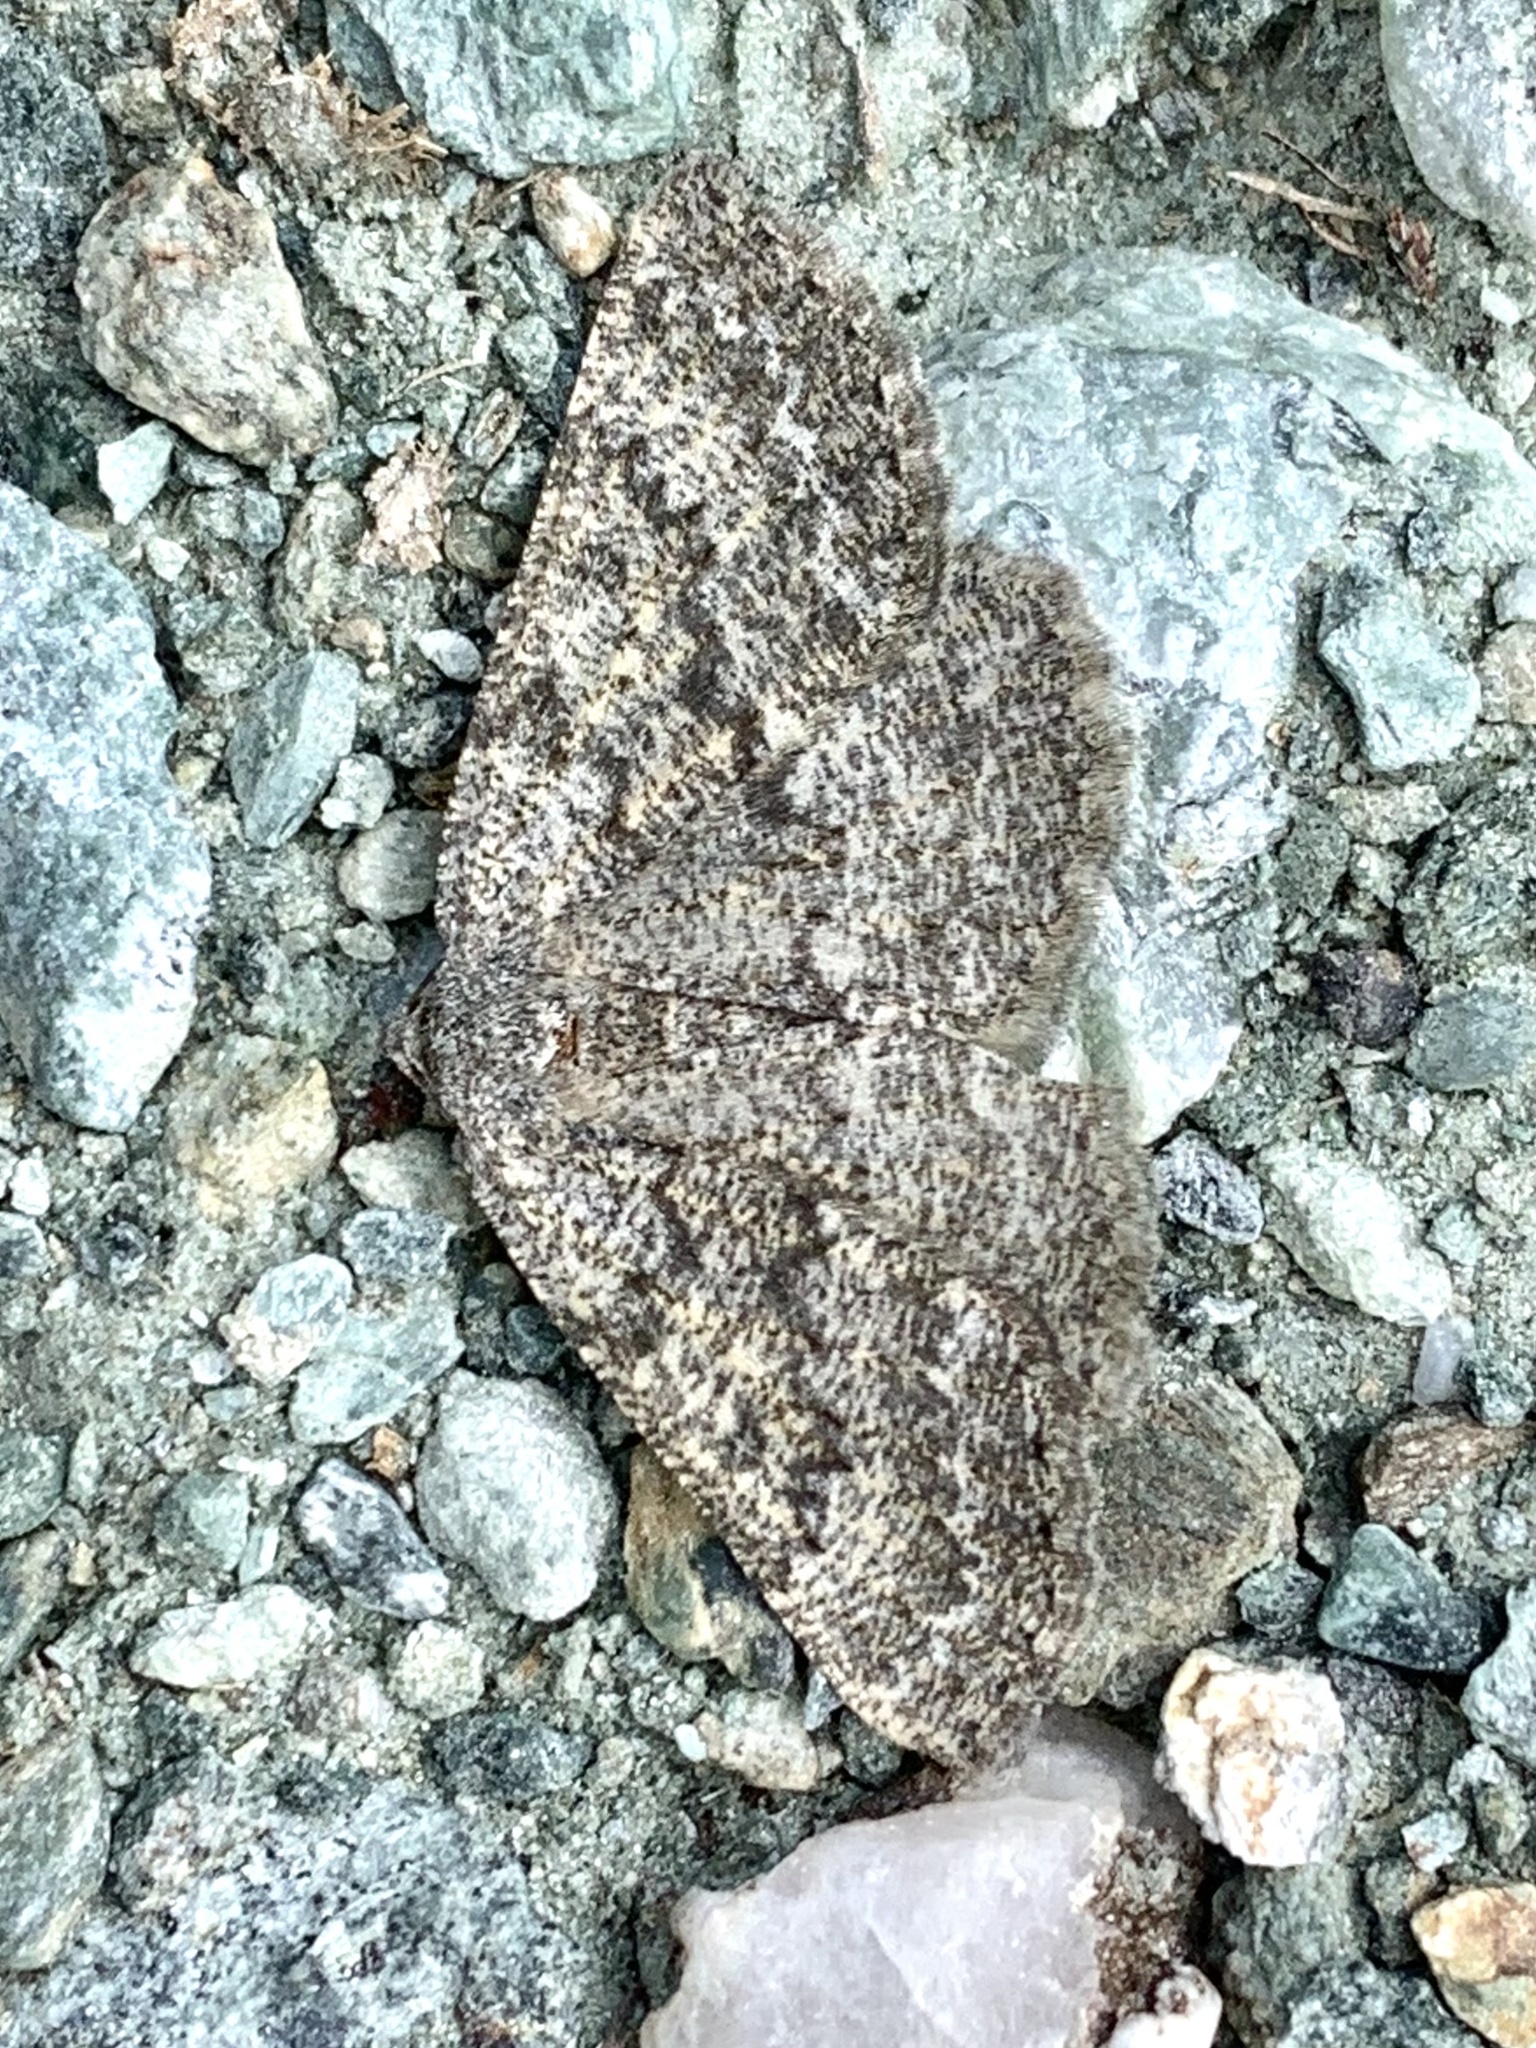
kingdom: Animalia
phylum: Arthropoda
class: Insecta
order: Lepidoptera
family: Geometridae
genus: Gnophos
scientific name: Gnophos obfuscata
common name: Scottish annulet
